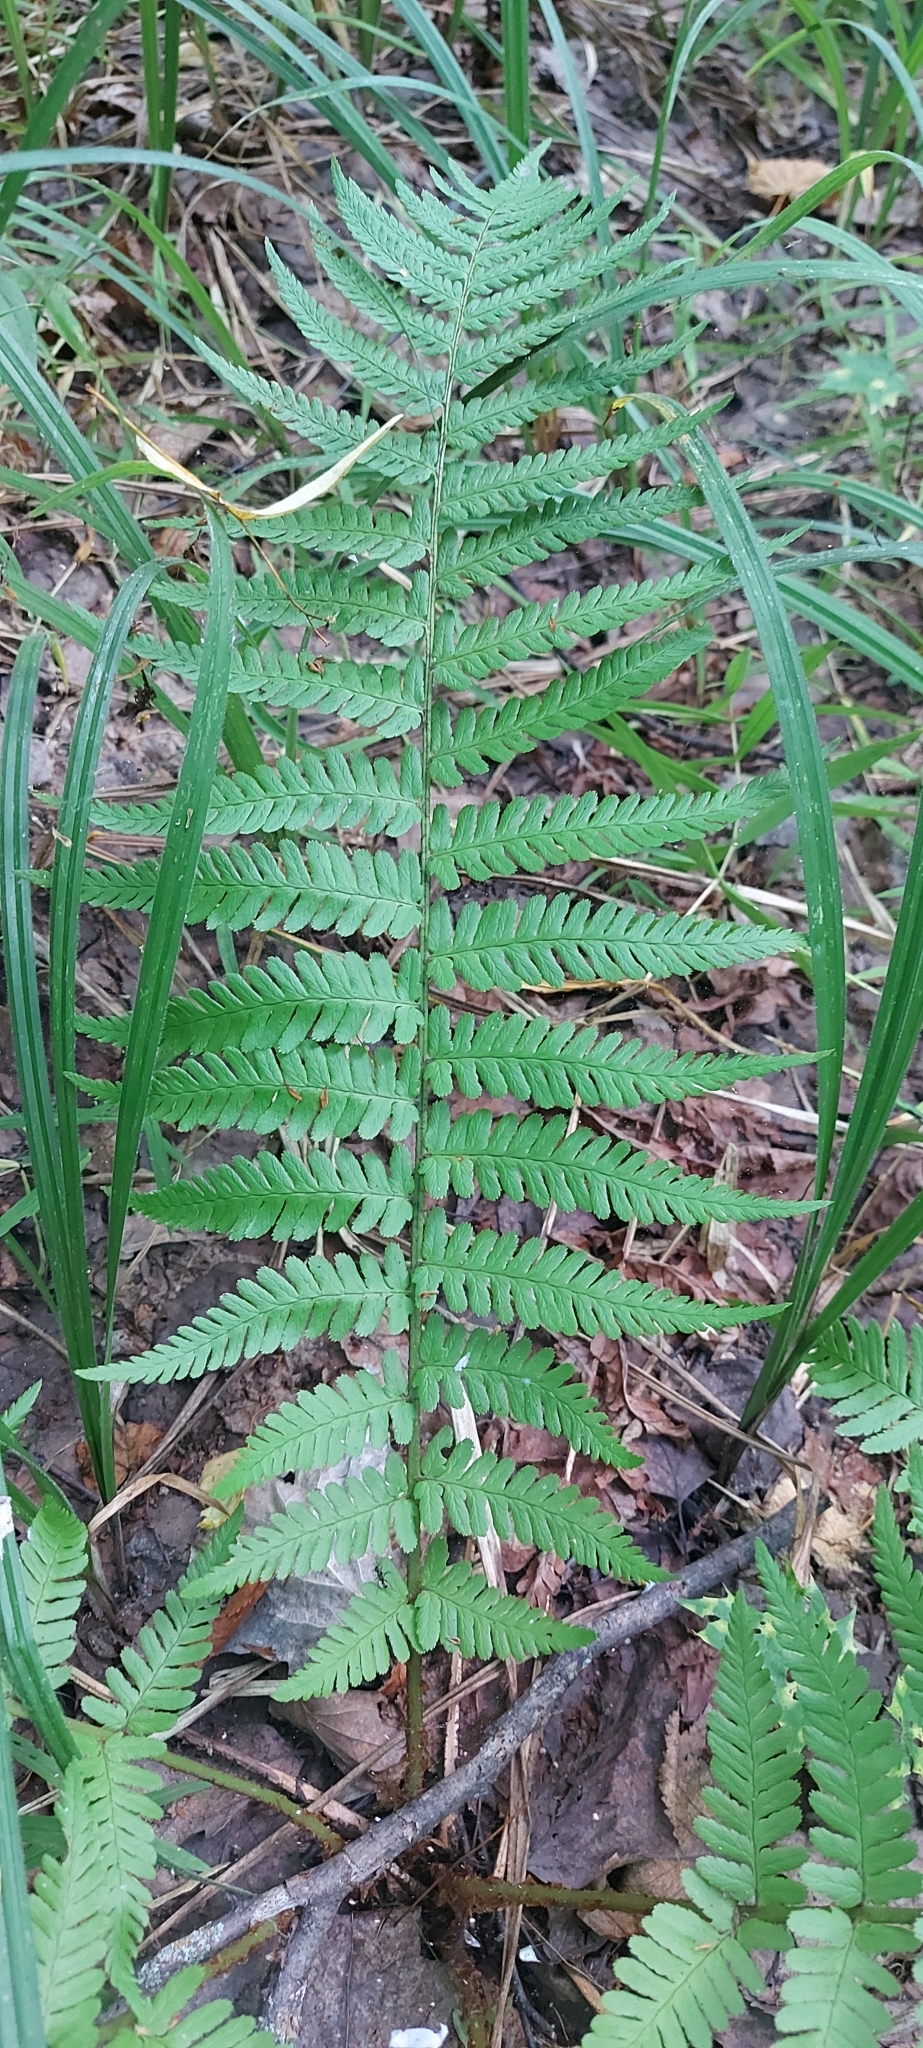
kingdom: Plantae
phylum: Tracheophyta
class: Polypodiopsida
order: Polypodiales
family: Dryopteridaceae
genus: Dryopteris
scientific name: Dryopteris filix-mas
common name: Male fern
